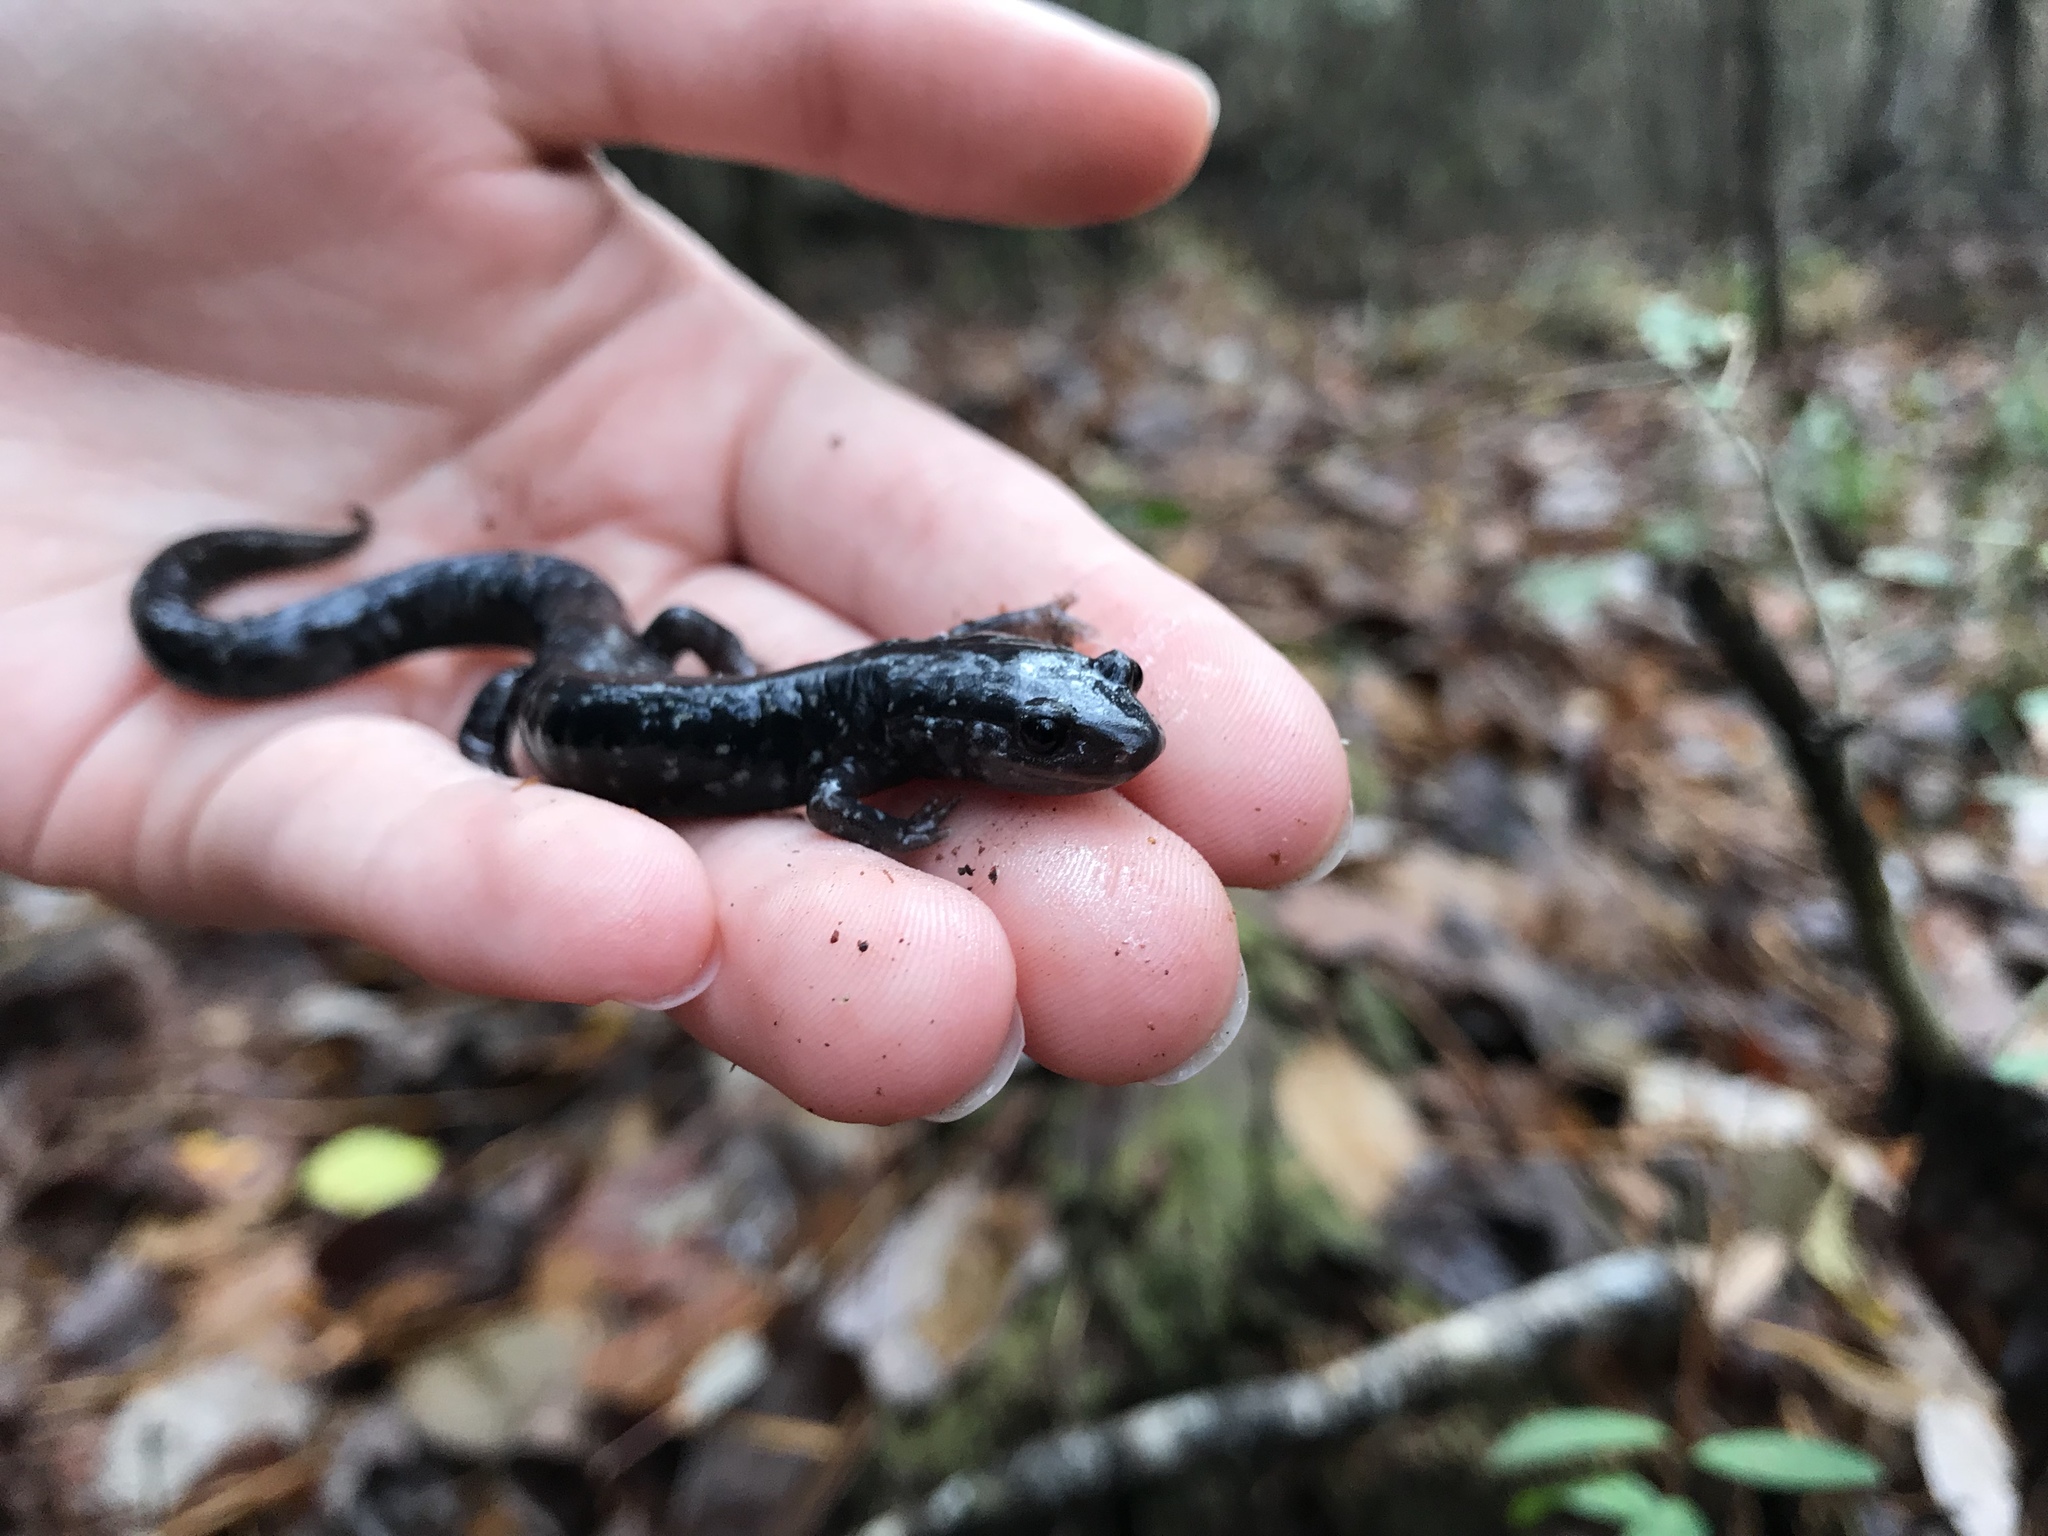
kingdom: Animalia
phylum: Chordata
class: Amphibia
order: Caudata
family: Plethodontidae
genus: Plethodon
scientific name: Plethodon mississippi
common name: Mississippi slimy salamander
